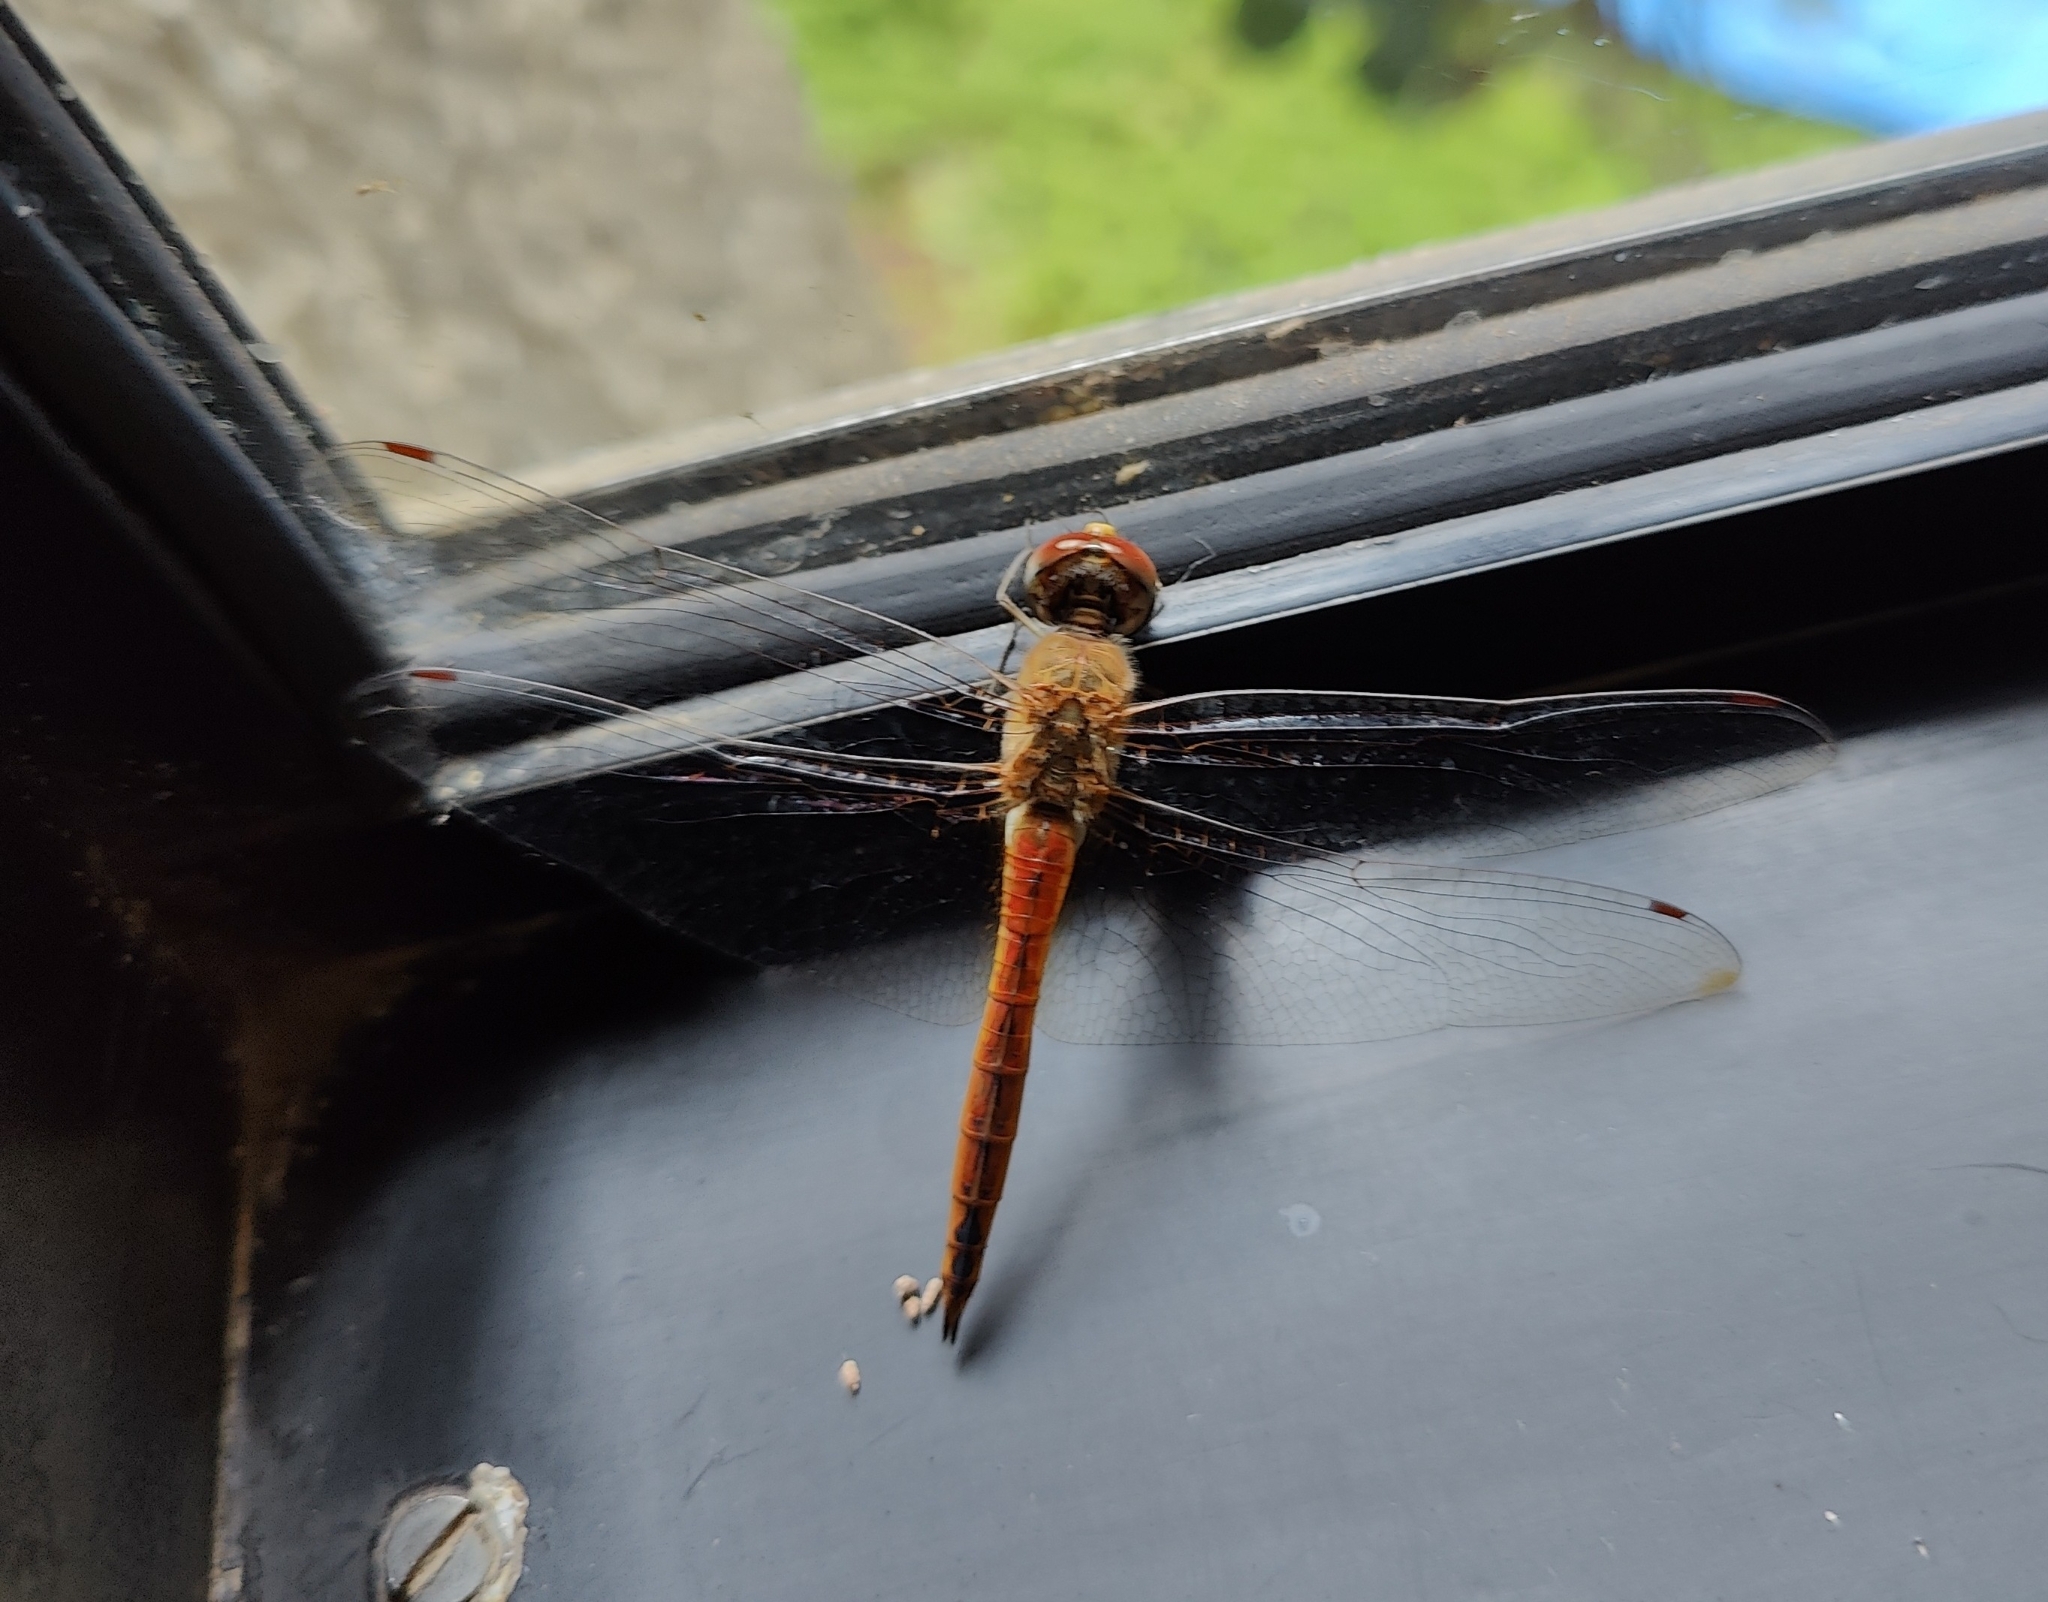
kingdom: Animalia
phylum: Arthropoda
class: Insecta
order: Odonata
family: Libellulidae
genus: Pantala
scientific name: Pantala flavescens
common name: Wandering glider
